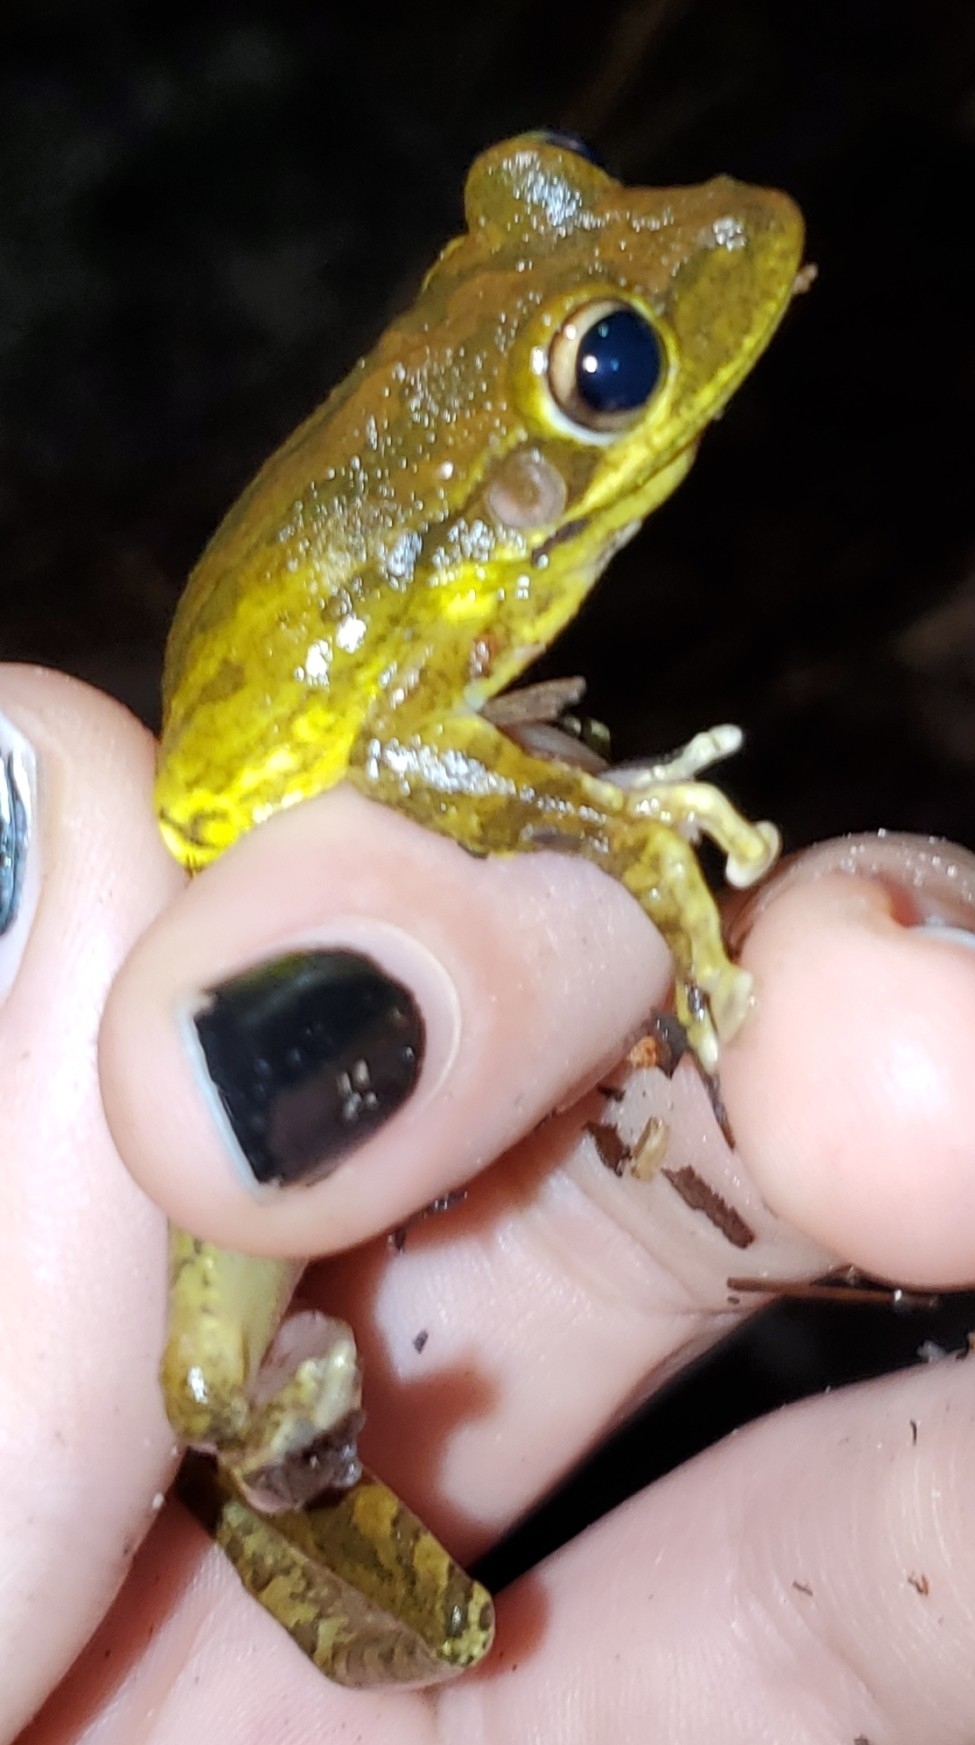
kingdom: Animalia
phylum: Chordata
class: Amphibia
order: Anura
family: Hylidae
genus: Osteopilus
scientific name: Osteopilus septentrionalis
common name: Cuban treefrog
